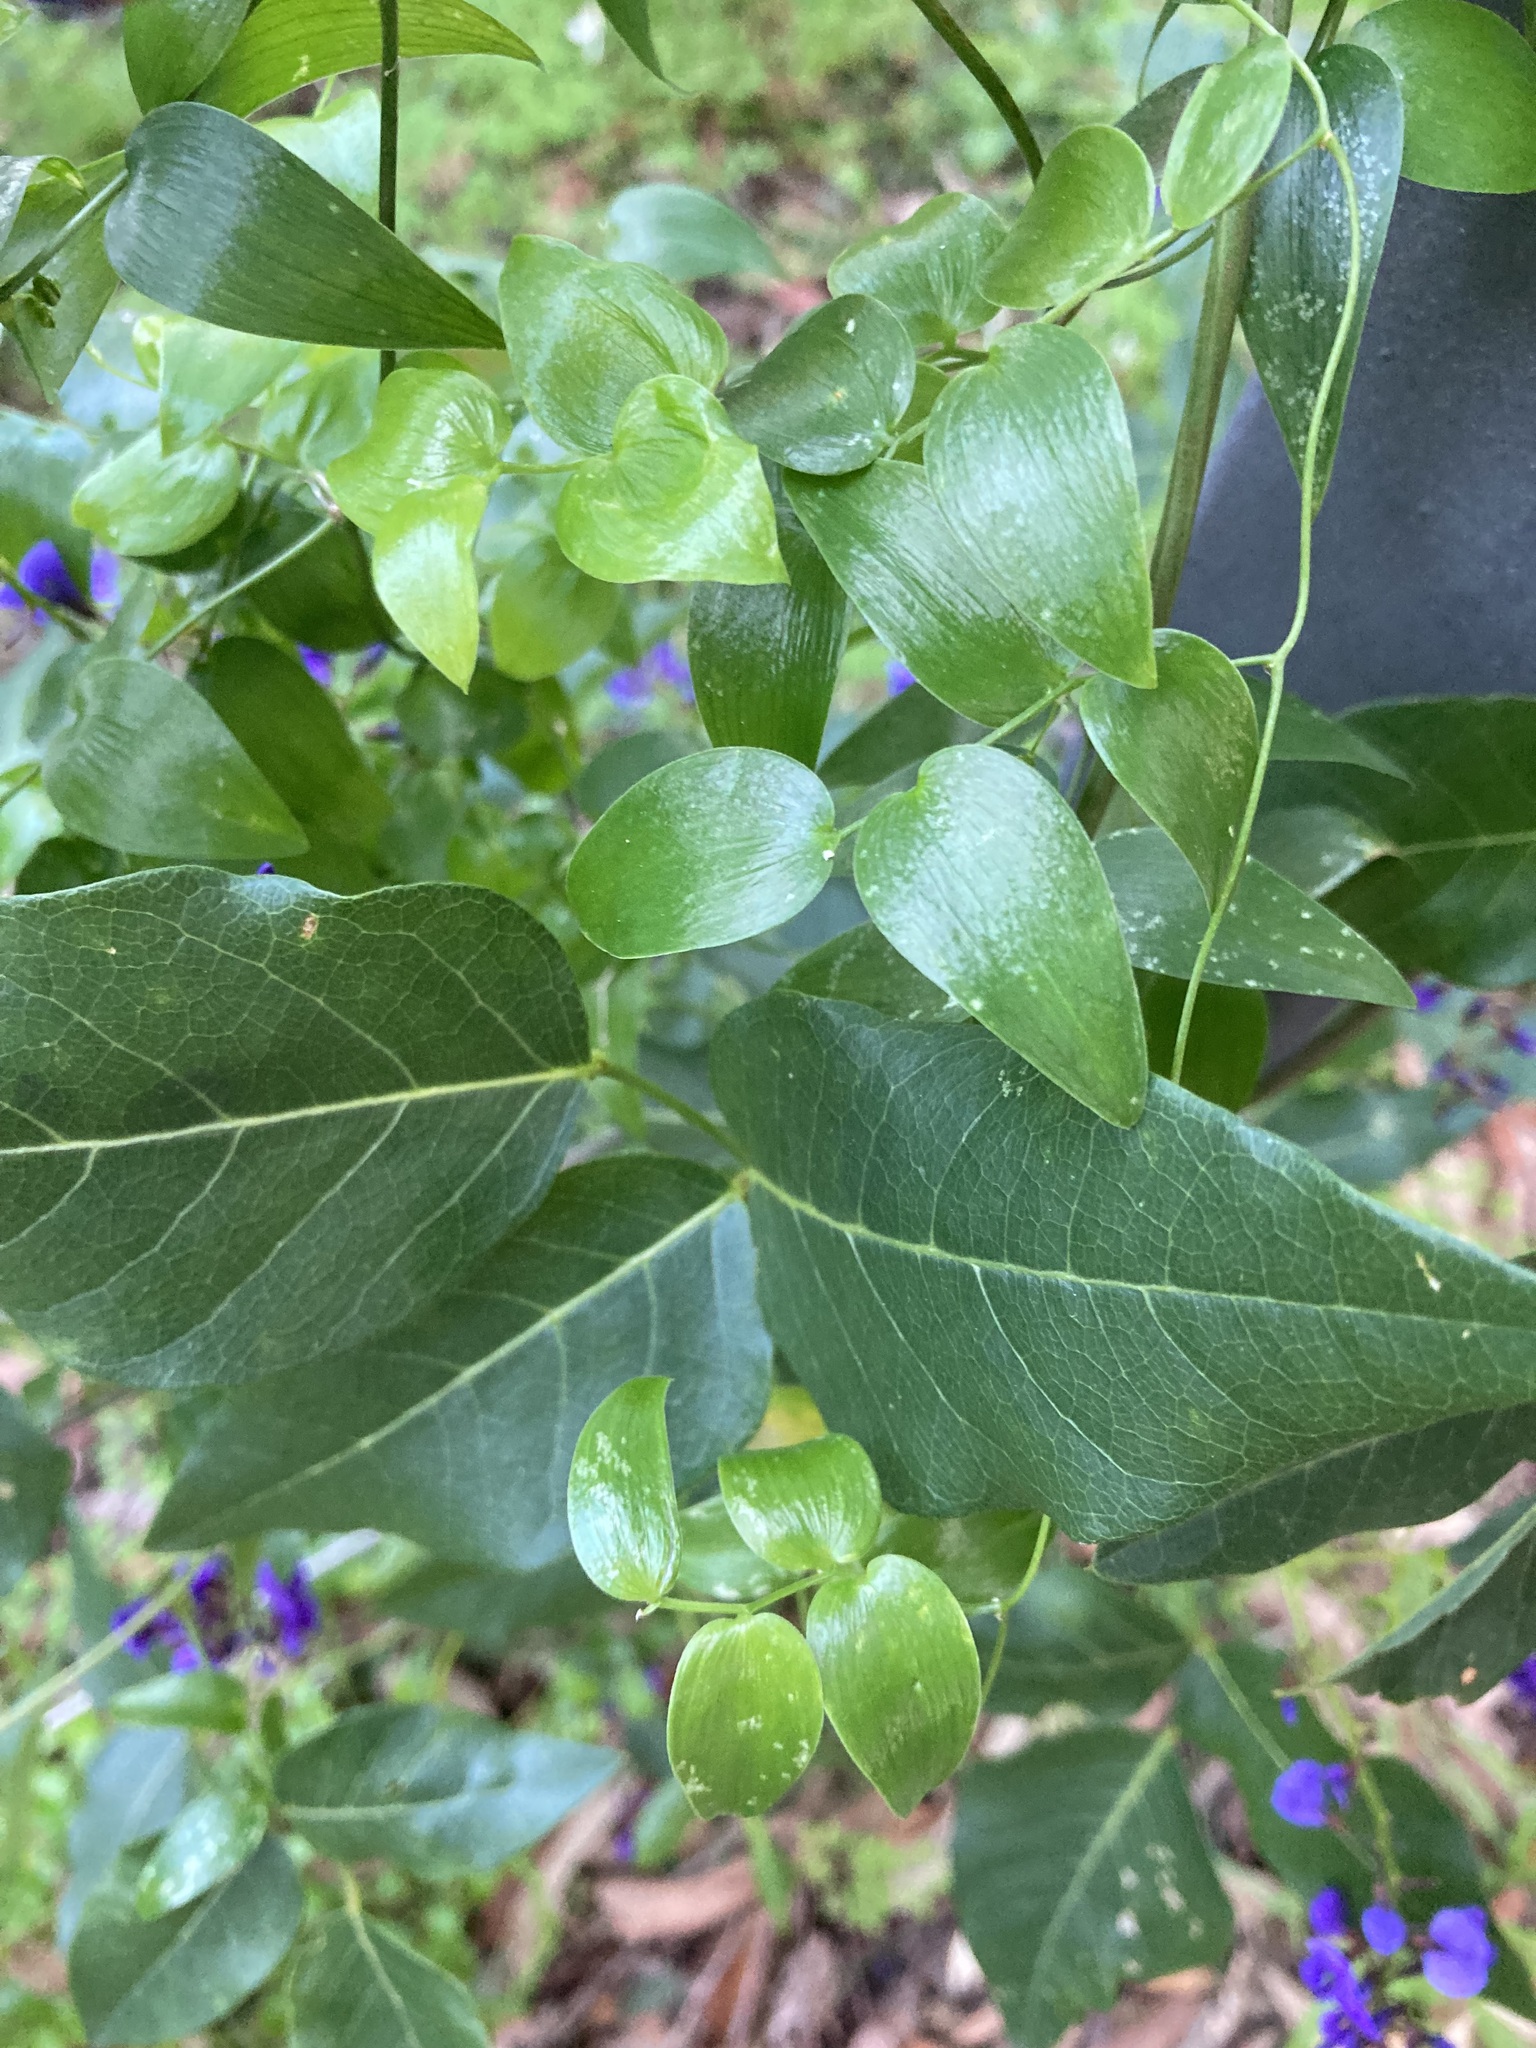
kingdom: Plantae
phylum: Tracheophyta
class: Liliopsida
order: Asparagales
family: Asparagaceae
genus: Asparagus
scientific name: Asparagus asparagoides
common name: African asparagus fern
